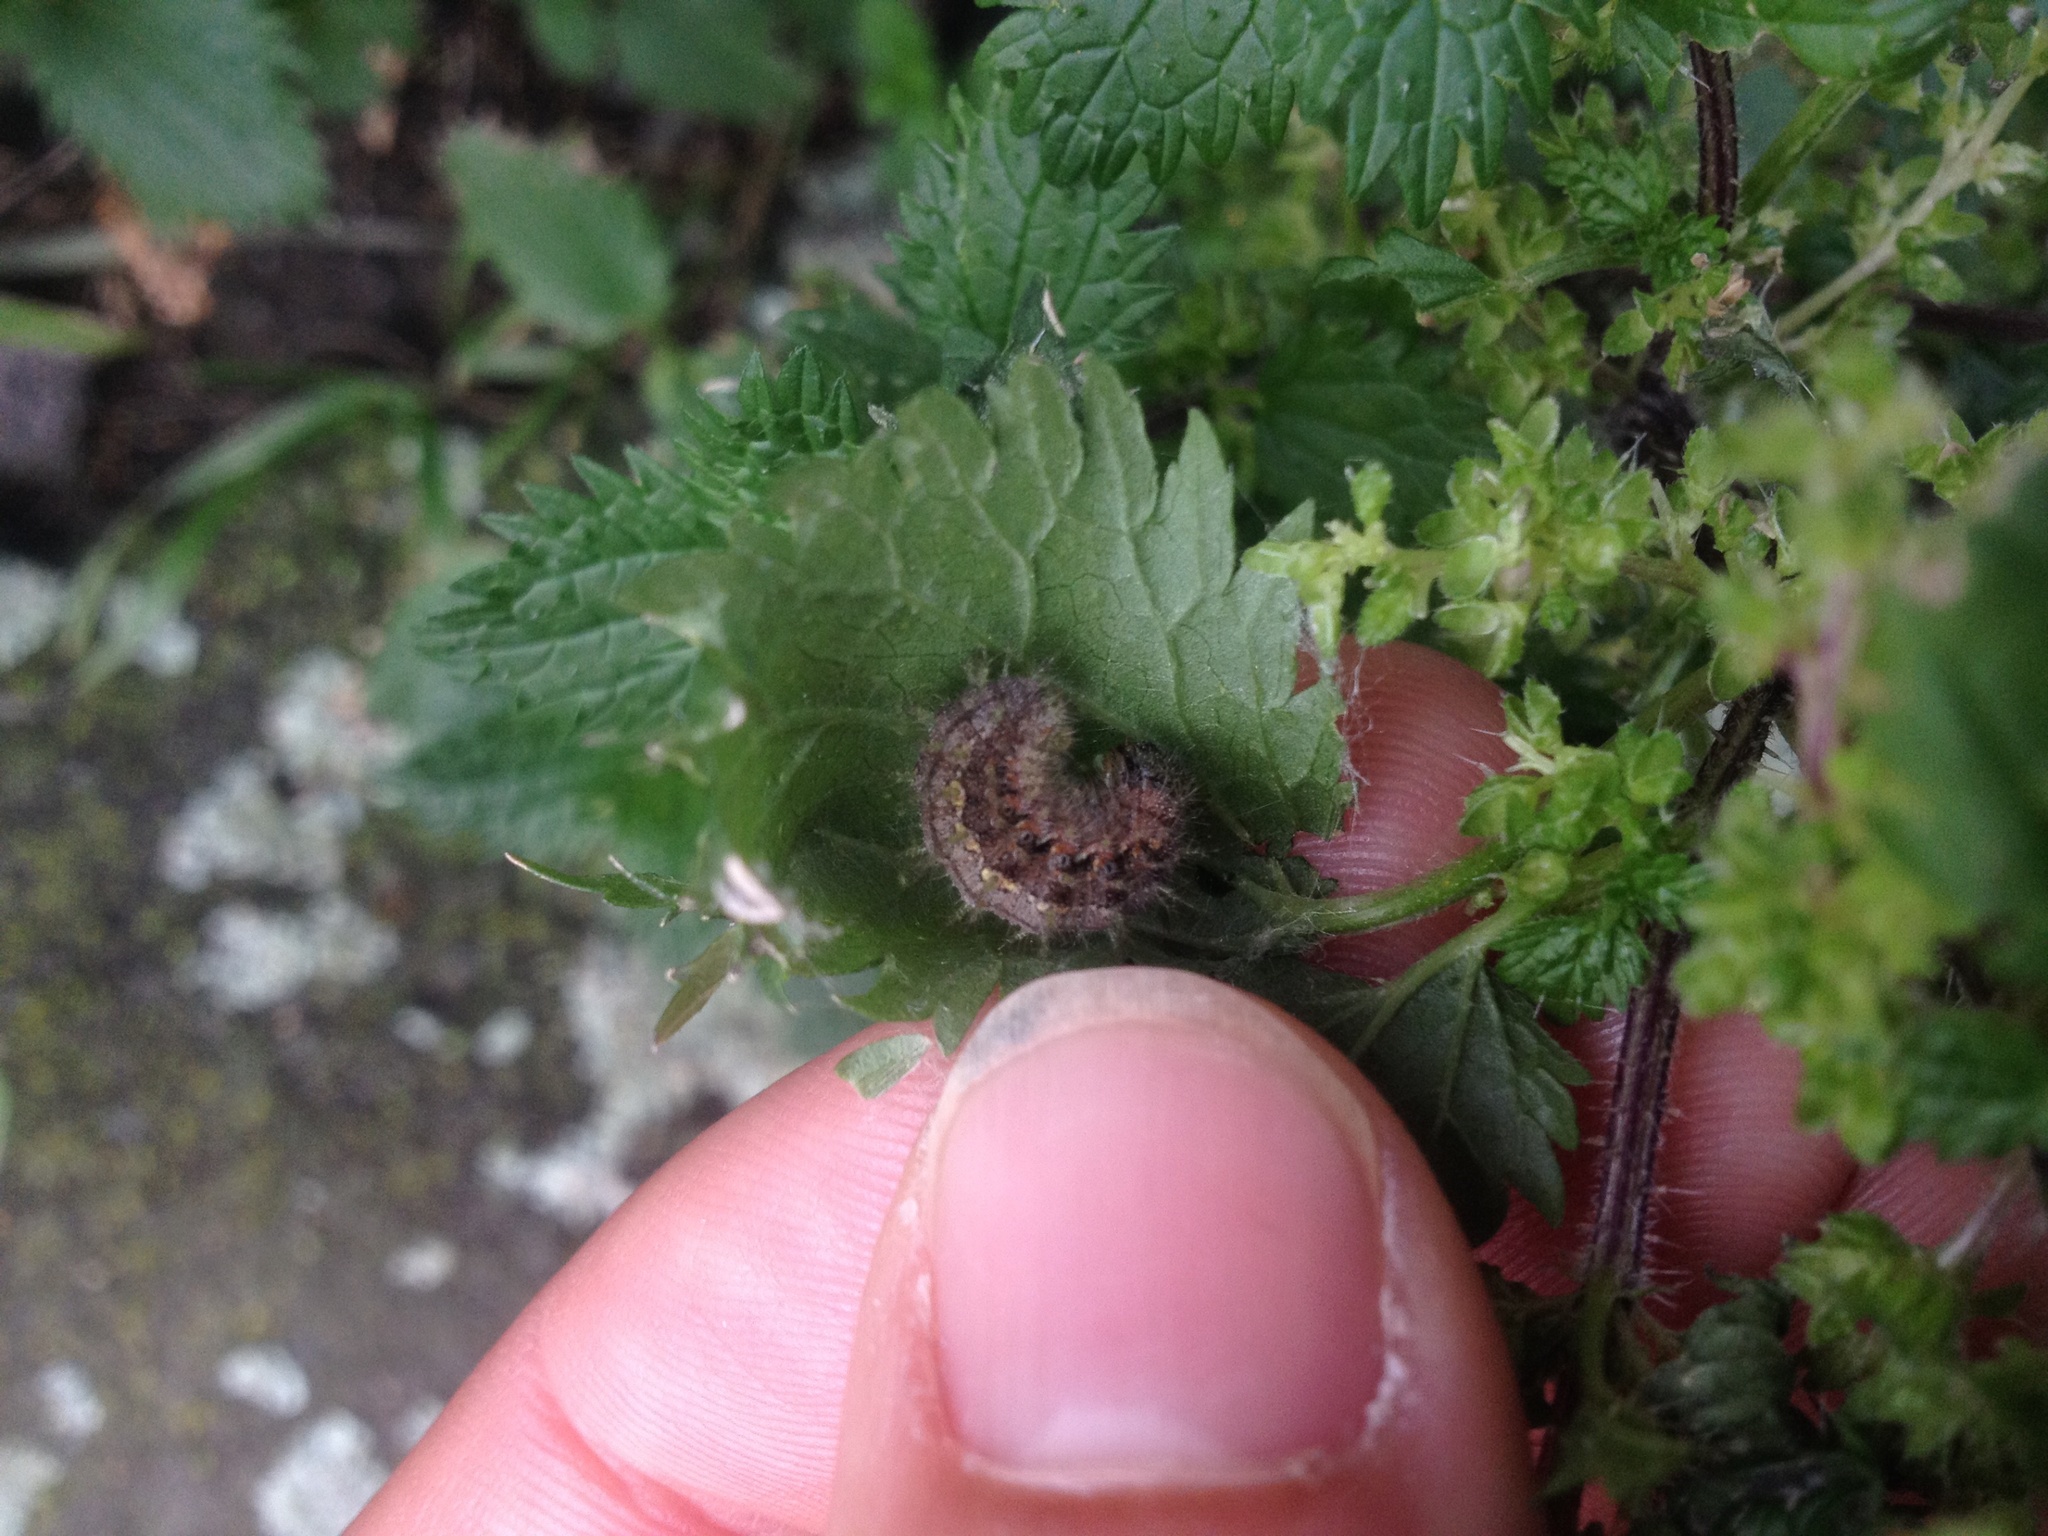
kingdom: Animalia
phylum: Arthropoda
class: Insecta
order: Lepidoptera
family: Nymphalidae
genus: Vanessa
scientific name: Vanessa itea
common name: Yellow admiral
